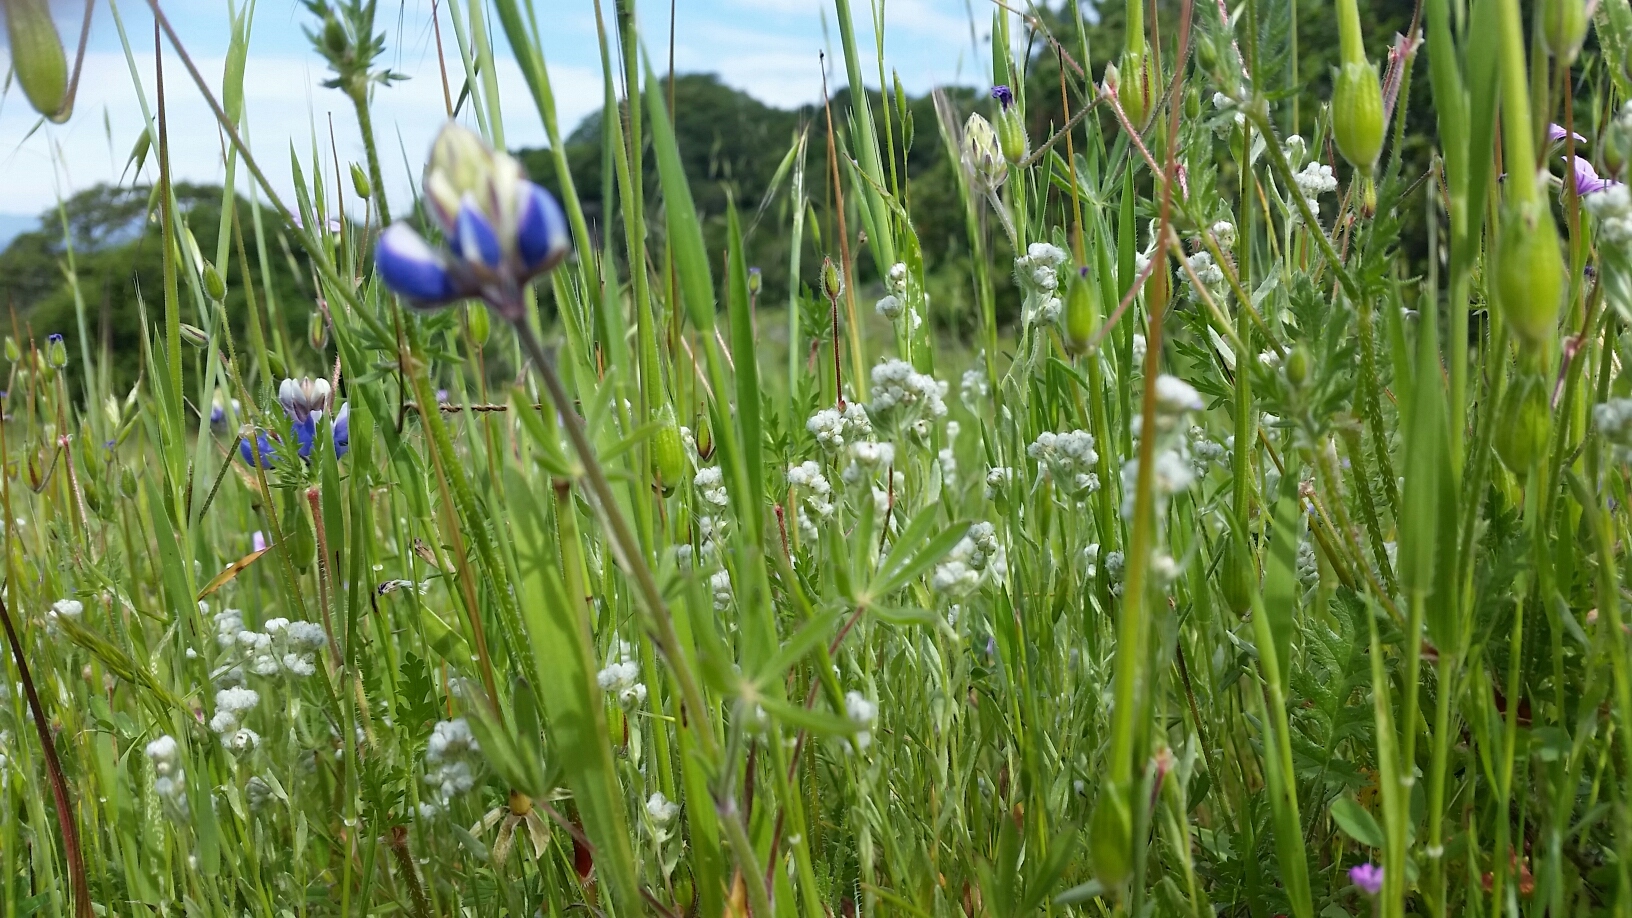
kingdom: Plantae
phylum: Tracheophyta
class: Magnoliopsida
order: Asterales
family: Asteraceae
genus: Bombycilaena
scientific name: Bombycilaena californica
